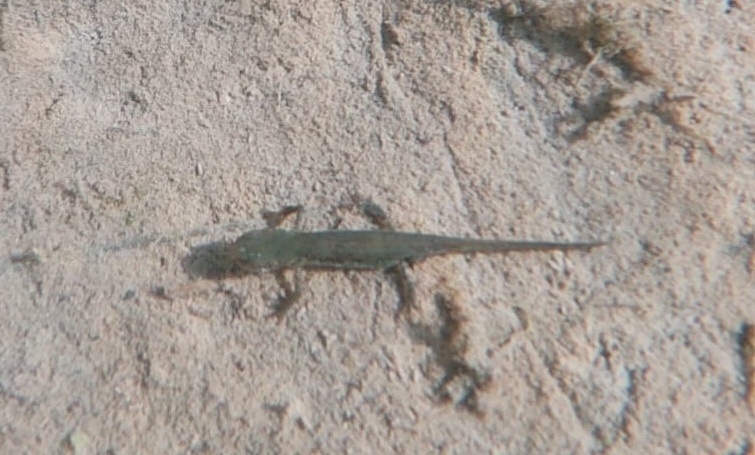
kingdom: Animalia
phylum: Chordata
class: Amphibia
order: Caudata
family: Salamandridae
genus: Lissotriton
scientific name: Lissotriton italicus
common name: Italian newt
